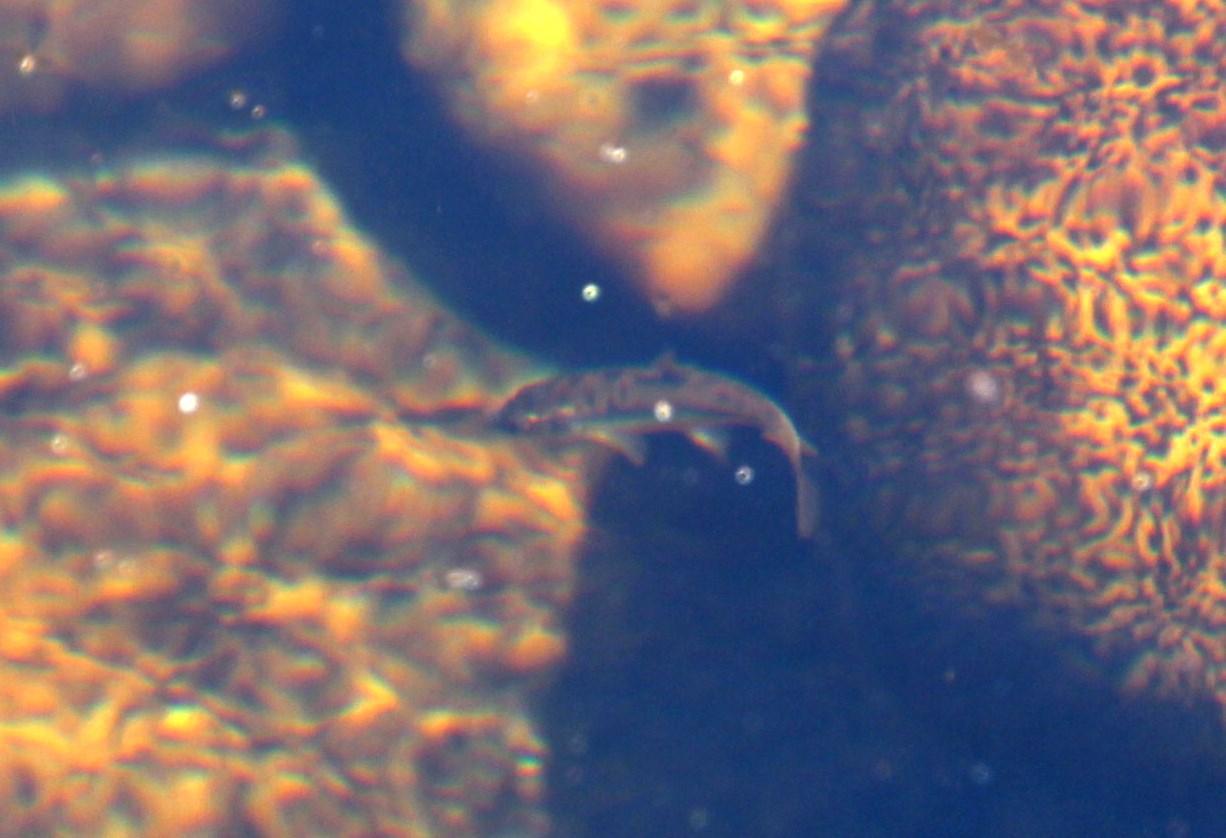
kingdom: Animalia
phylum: Chordata
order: Cypriniformes
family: Cyprinidae
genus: Pseudobarbus
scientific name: Pseudobarbus burchelli
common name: Burchell's redfin
